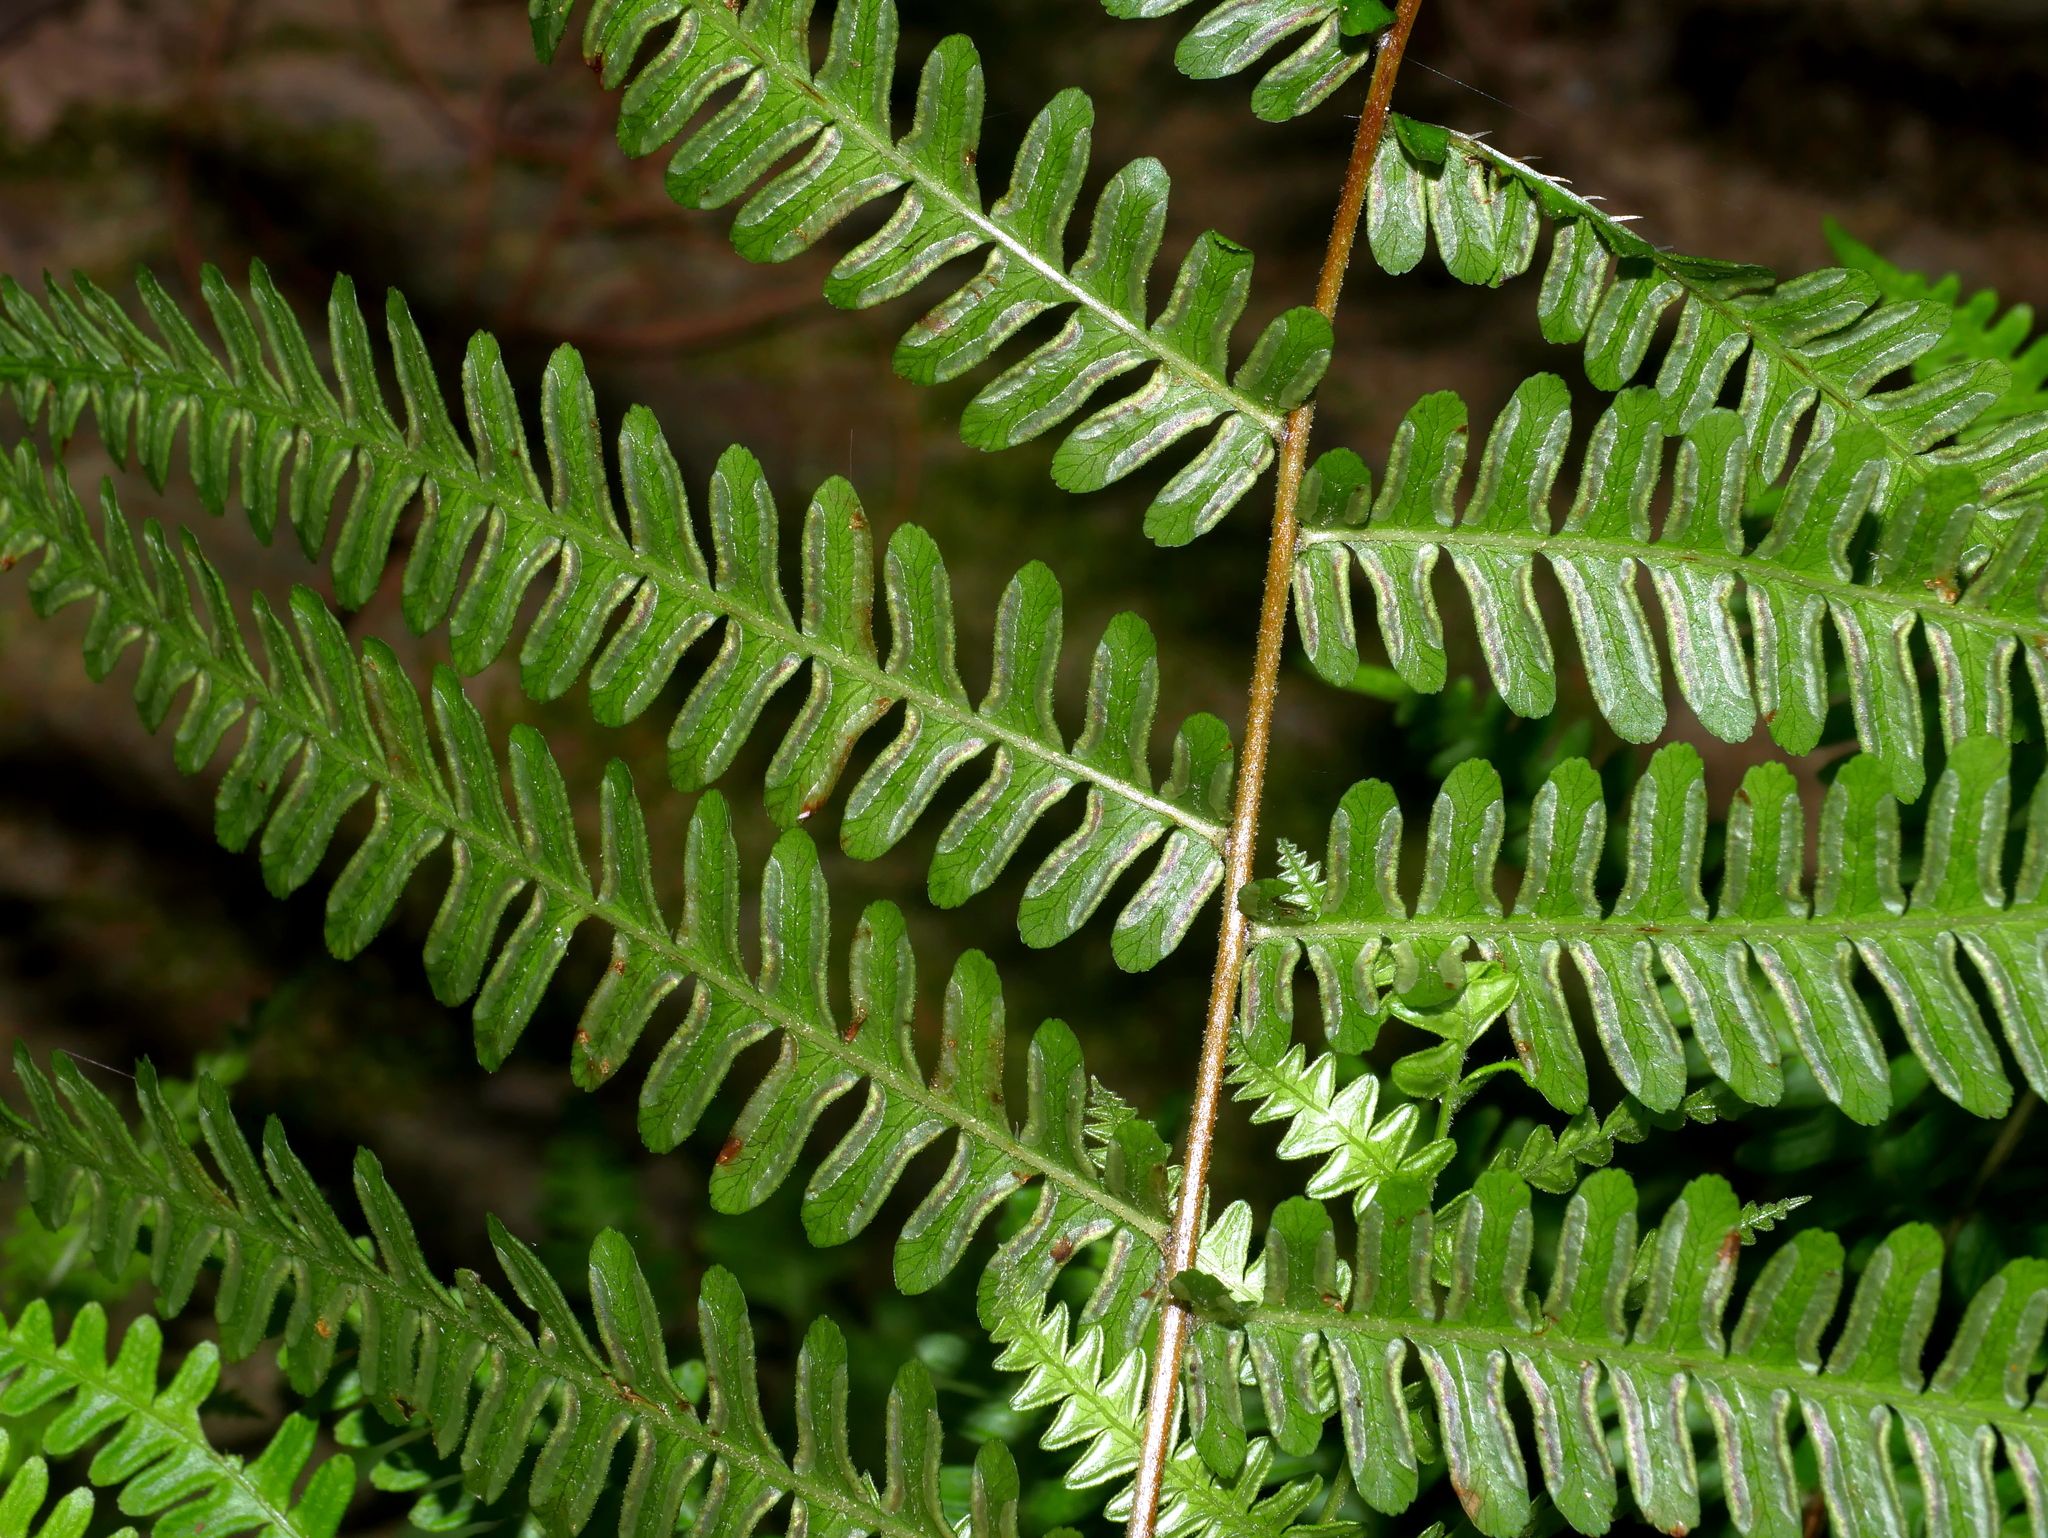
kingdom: Plantae
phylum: Tracheophyta
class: Polypodiopsida
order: Polypodiales
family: Pteridaceae
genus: Pteris
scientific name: Pteris longipes
